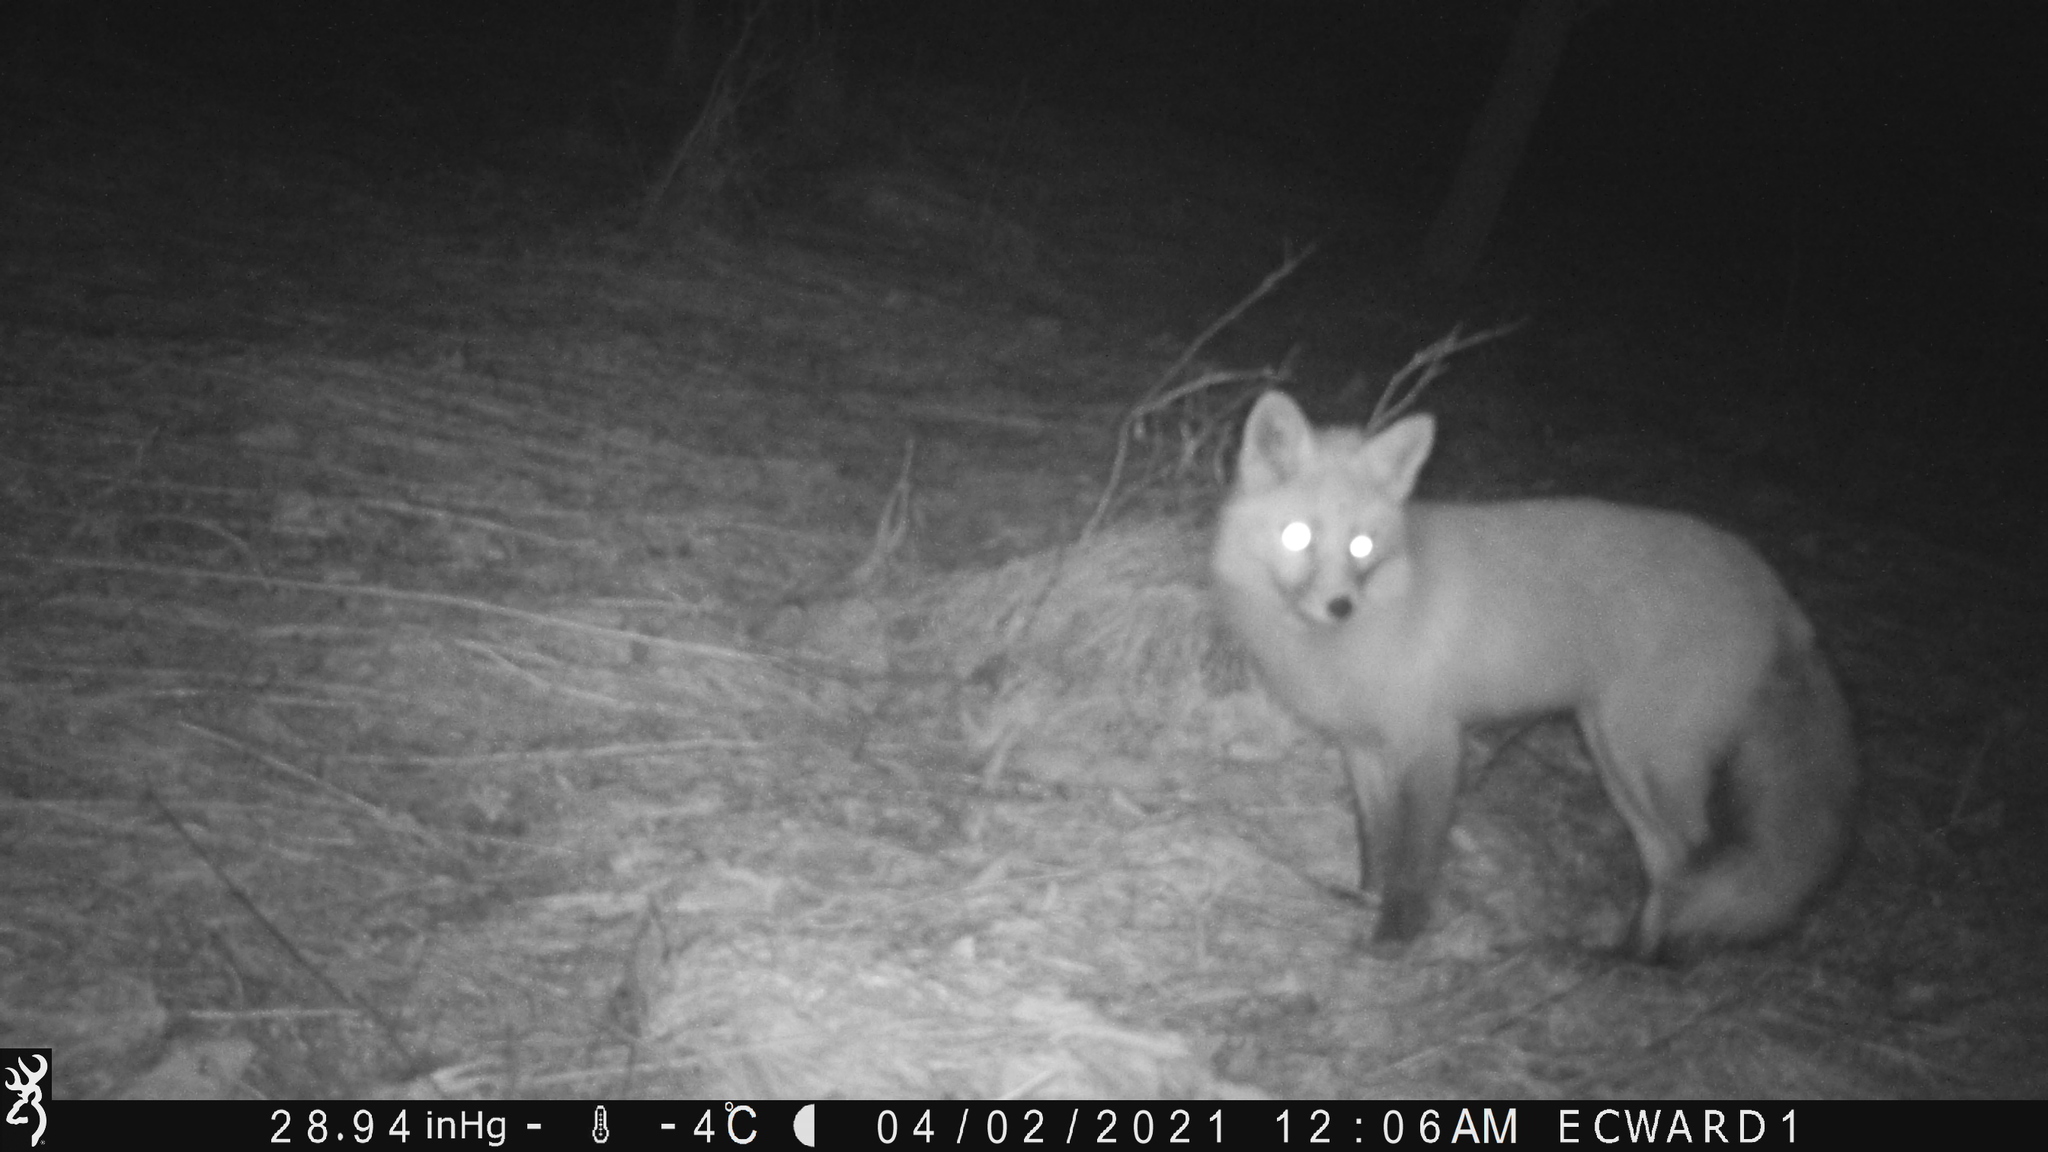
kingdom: Animalia
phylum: Chordata
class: Mammalia
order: Carnivora
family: Canidae
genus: Vulpes
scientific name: Vulpes vulpes
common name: Red fox
